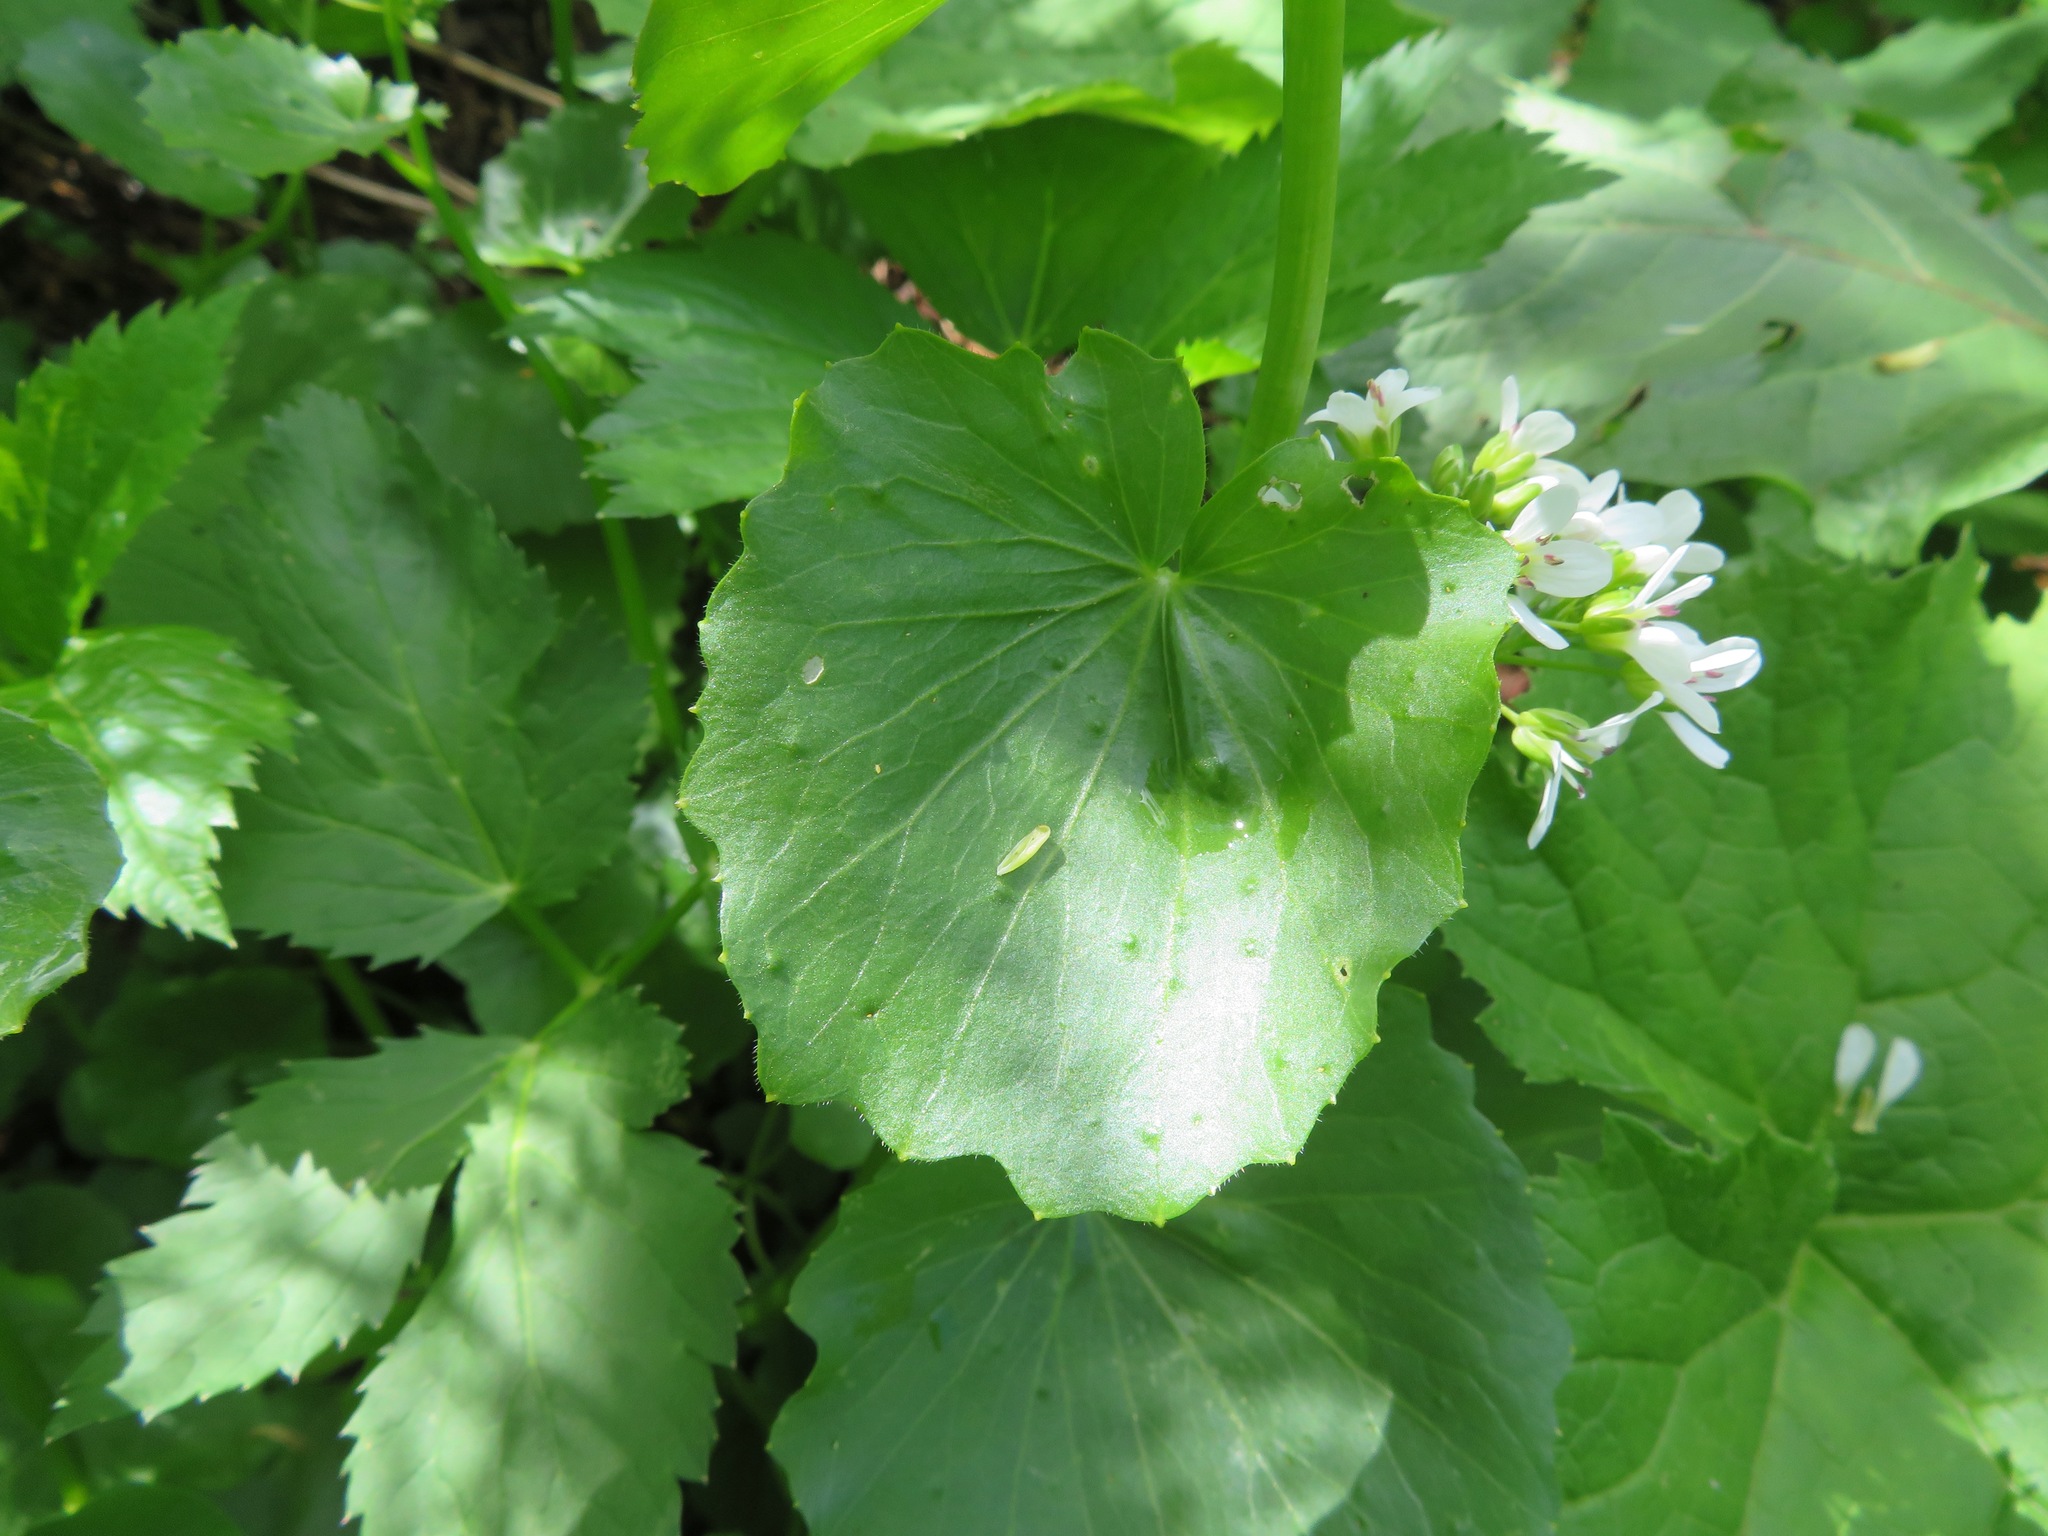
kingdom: Plantae
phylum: Tracheophyta
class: Magnoliopsida
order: Brassicales
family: Brassicaceae
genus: Cardamine
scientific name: Cardamine asarifolia
